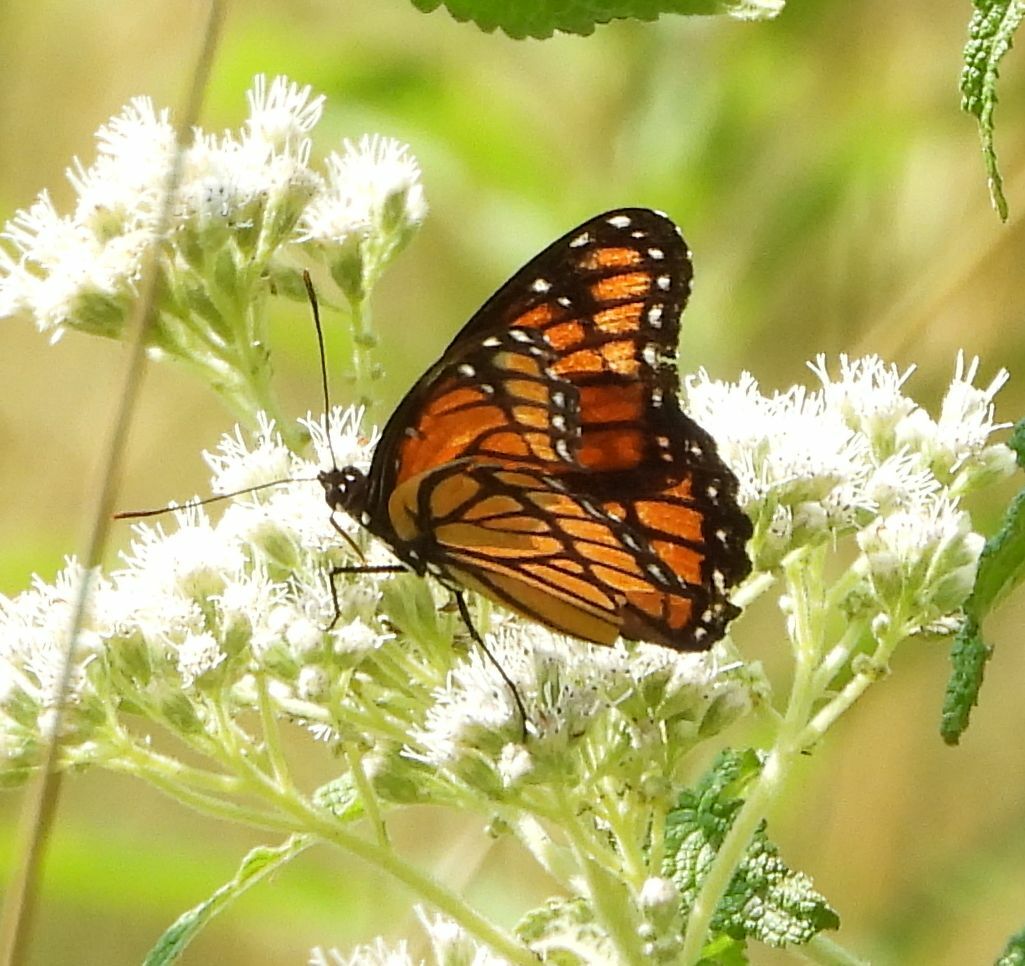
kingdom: Animalia
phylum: Arthropoda
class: Insecta
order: Lepidoptera
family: Nymphalidae
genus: Limenitis
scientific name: Limenitis archippus
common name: Viceroy
